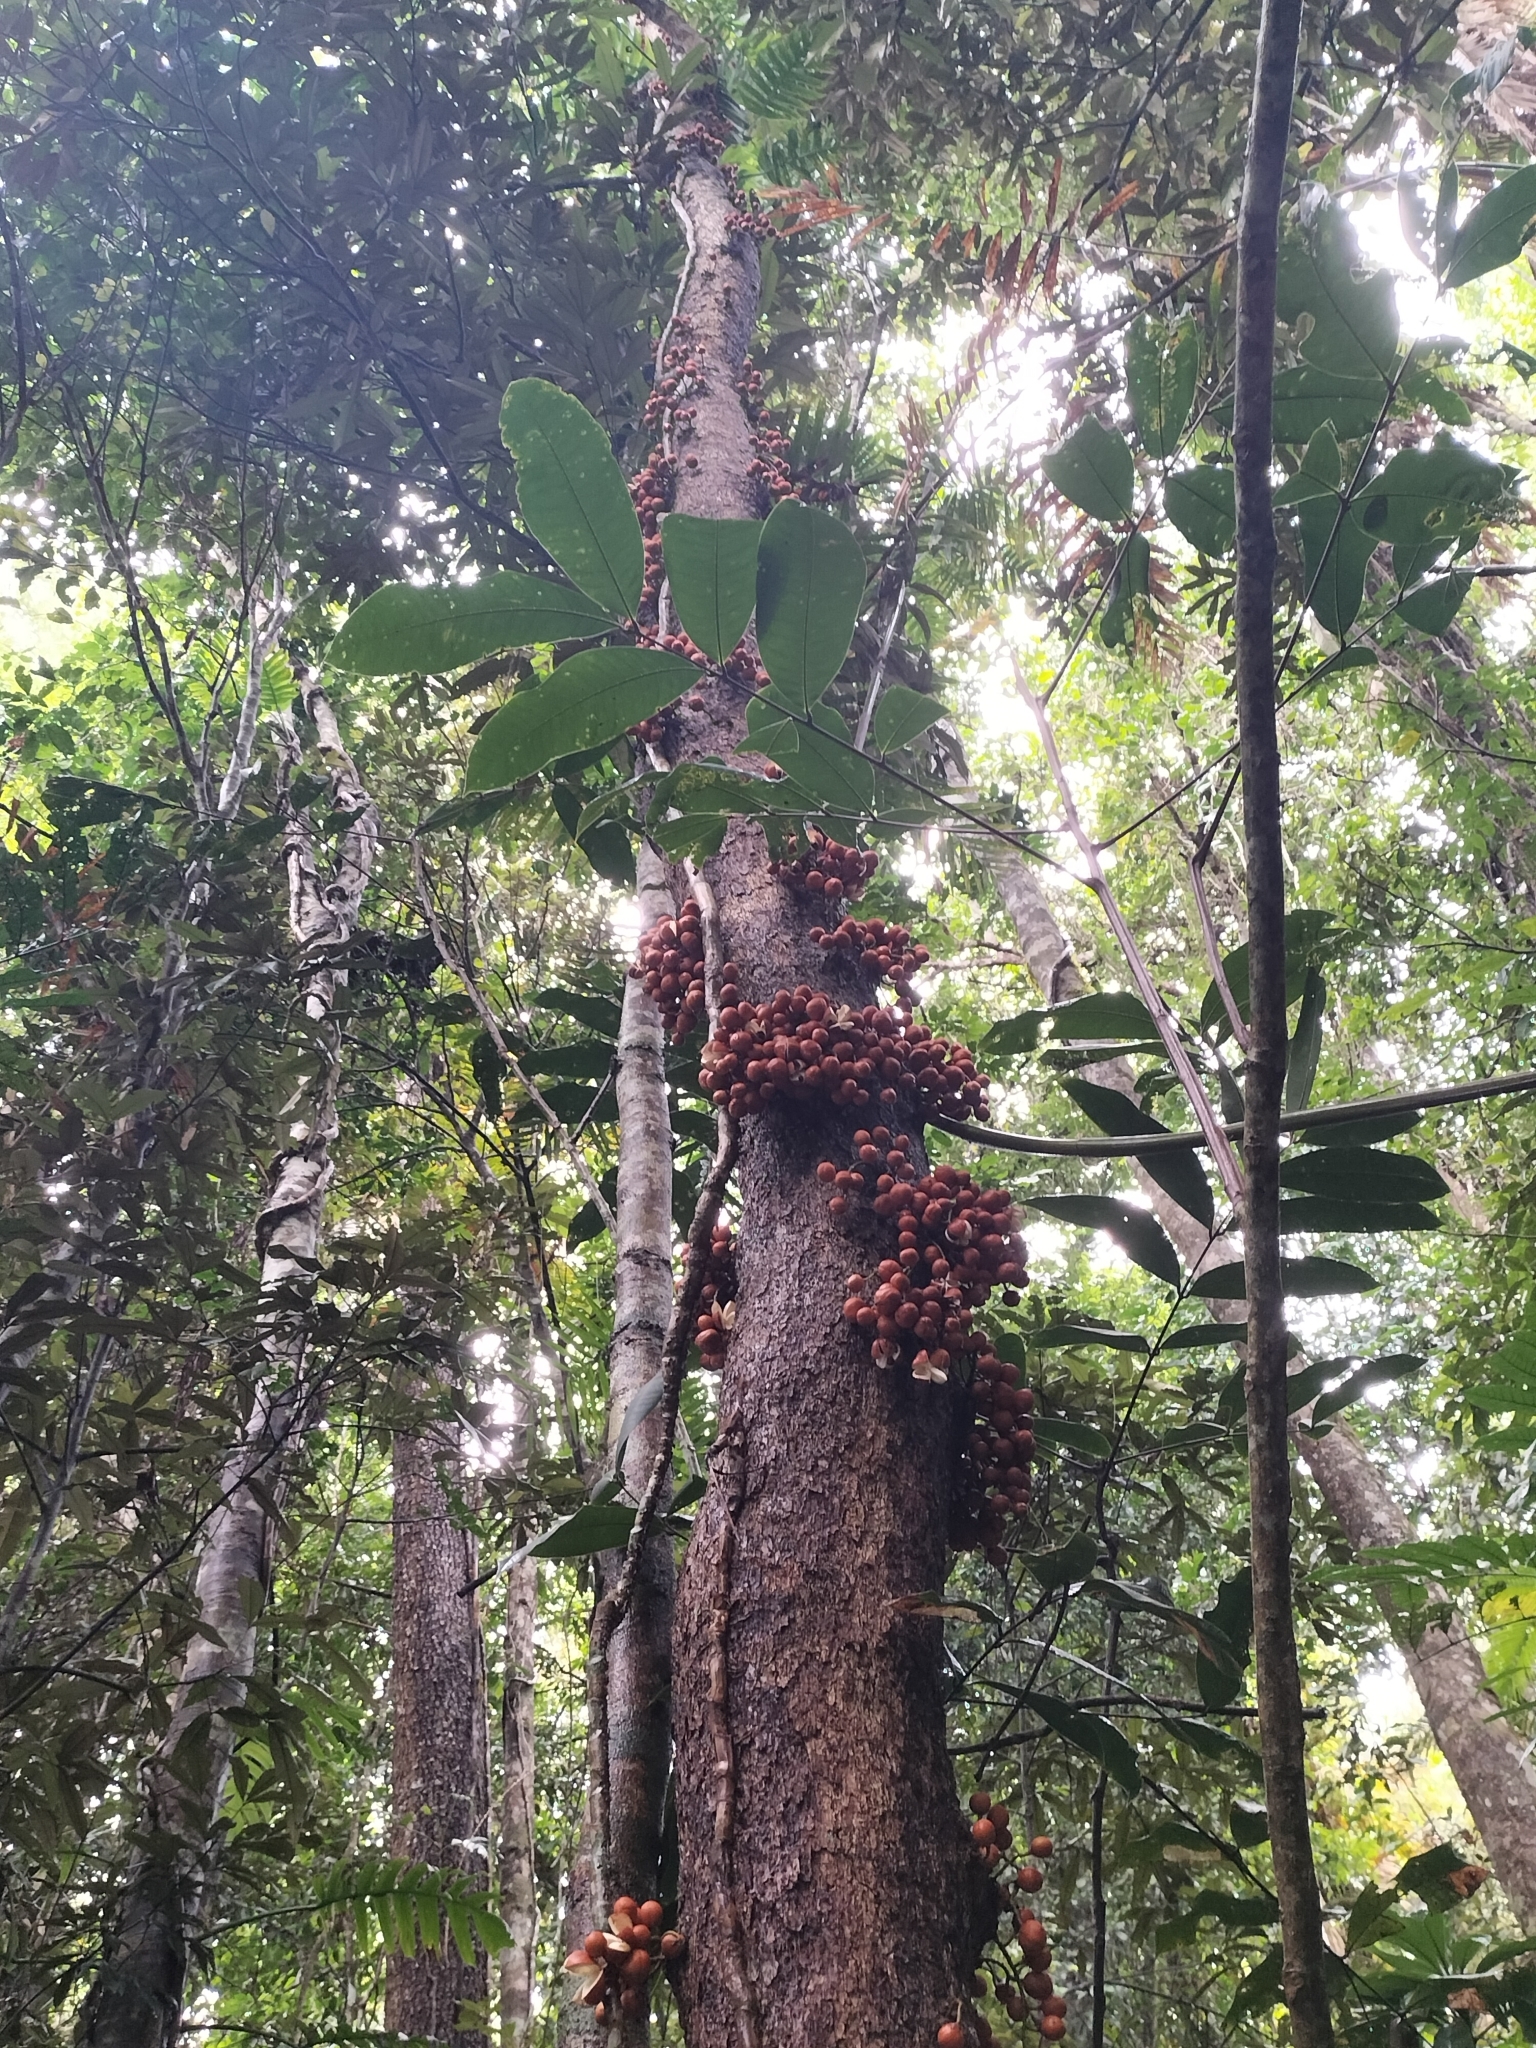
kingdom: Plantae
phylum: Tracheophyta
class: Magnoliopsida
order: Sapindales
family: Meliaceae
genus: Epicharis
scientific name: Epicharis parasitica
